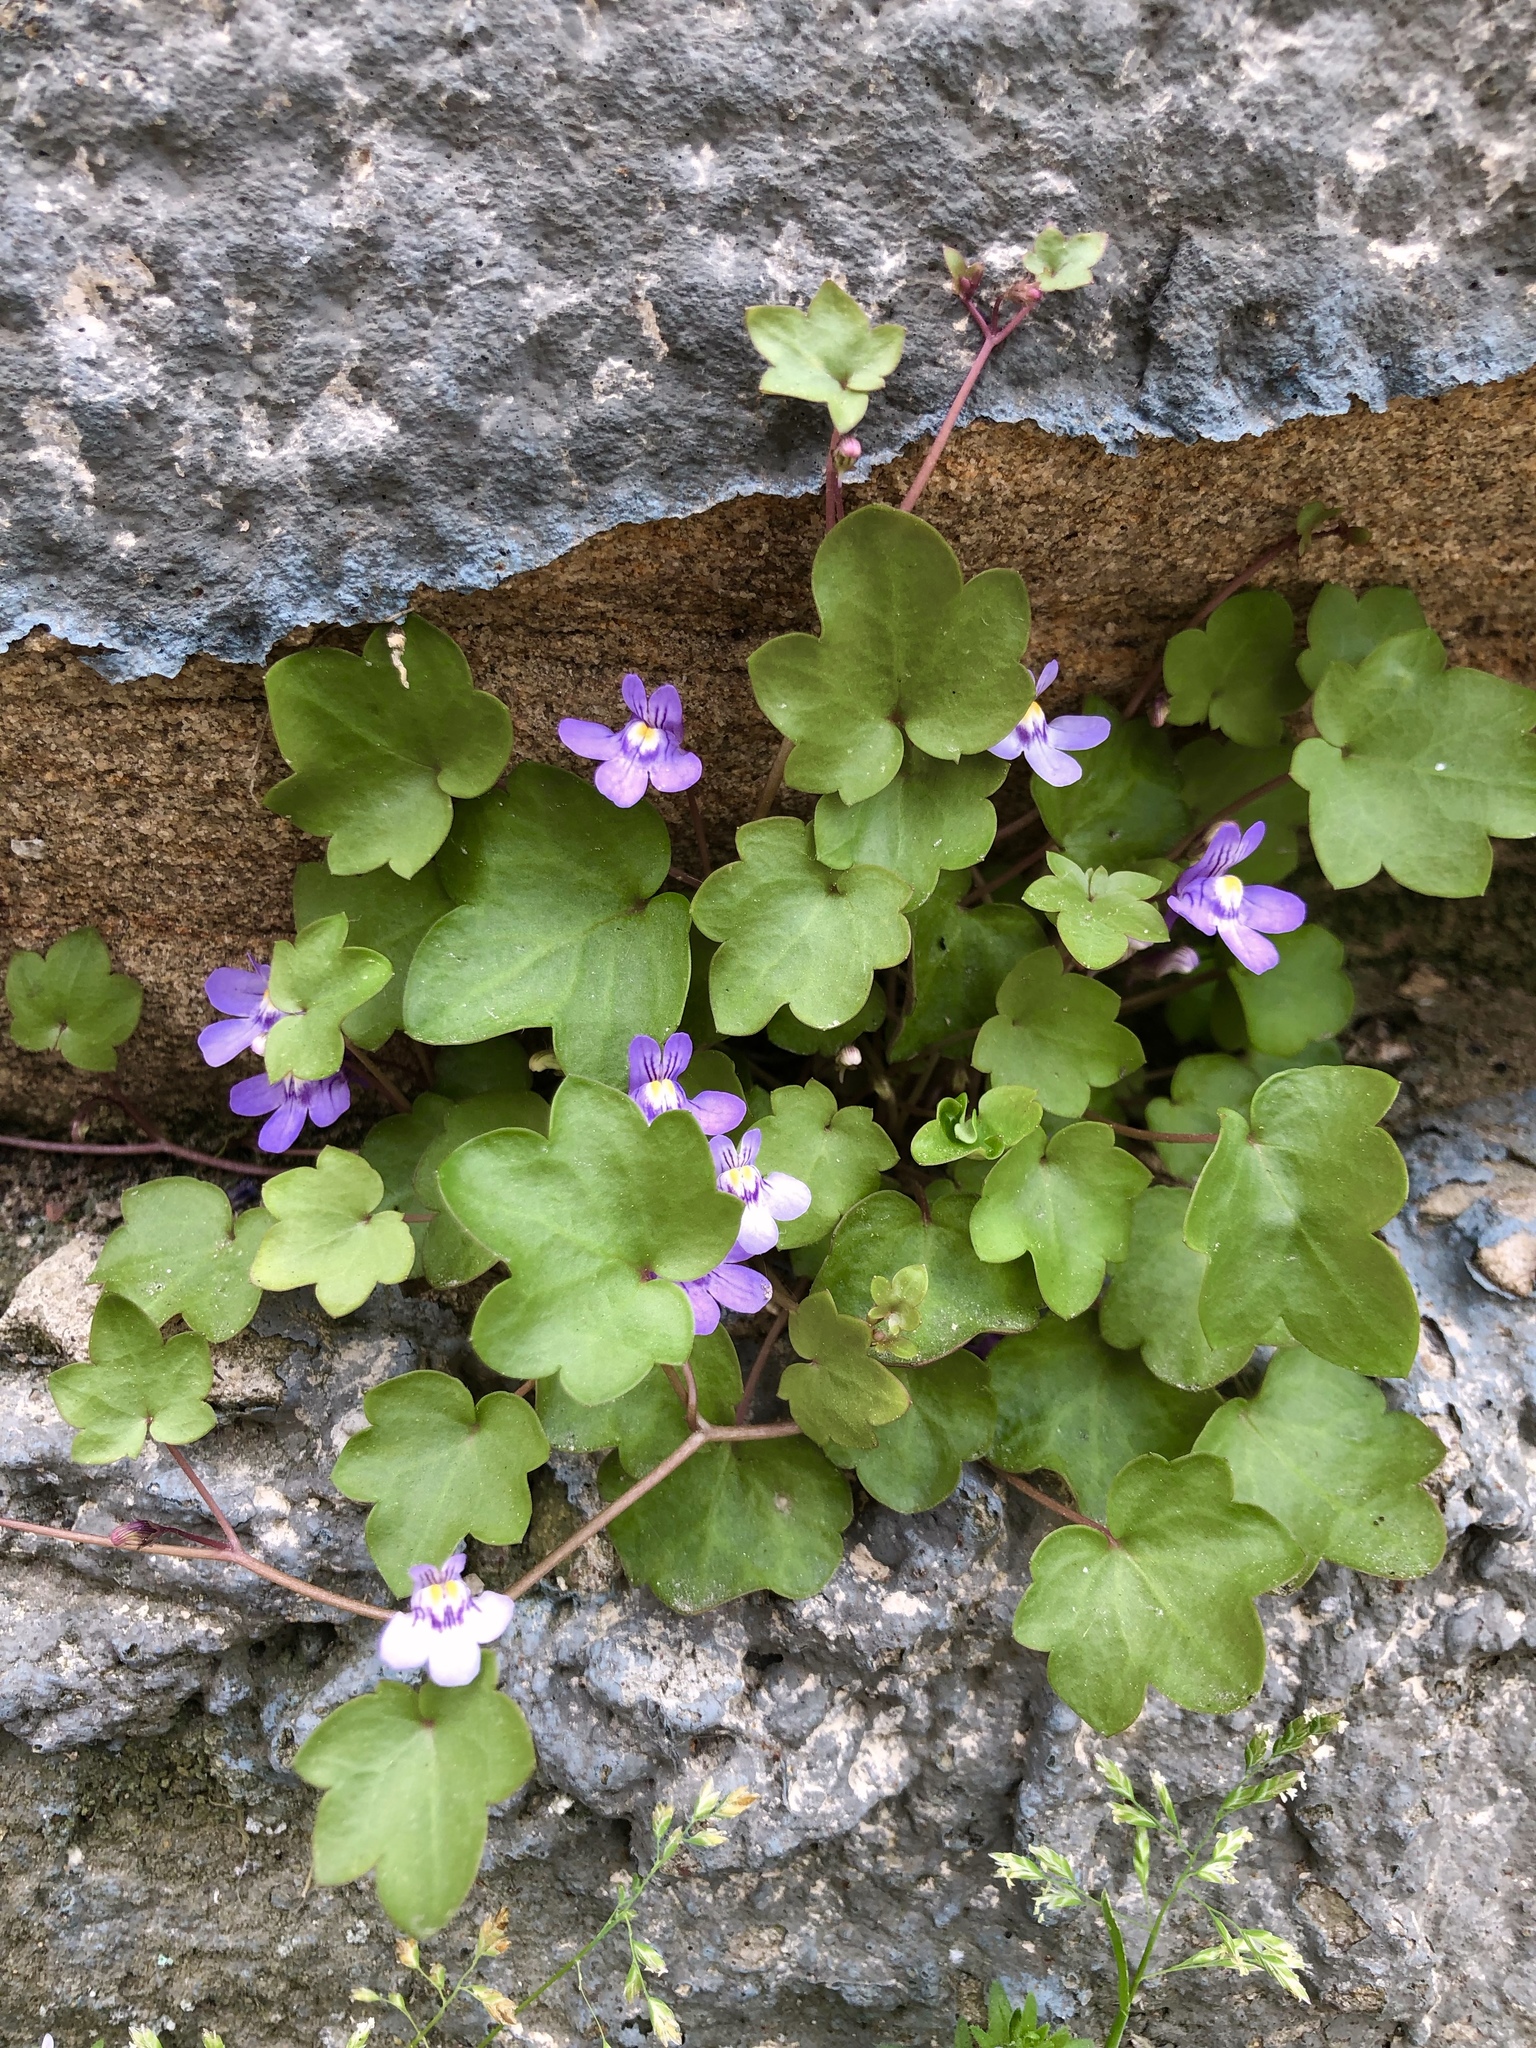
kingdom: Plantae
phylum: Tracheophyta
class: Magnoliopsida
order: Lamiales
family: Plantaginaceae
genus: Cymbalaria
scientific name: Cymbalaria muralis
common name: Ivy-leaved toadflax
